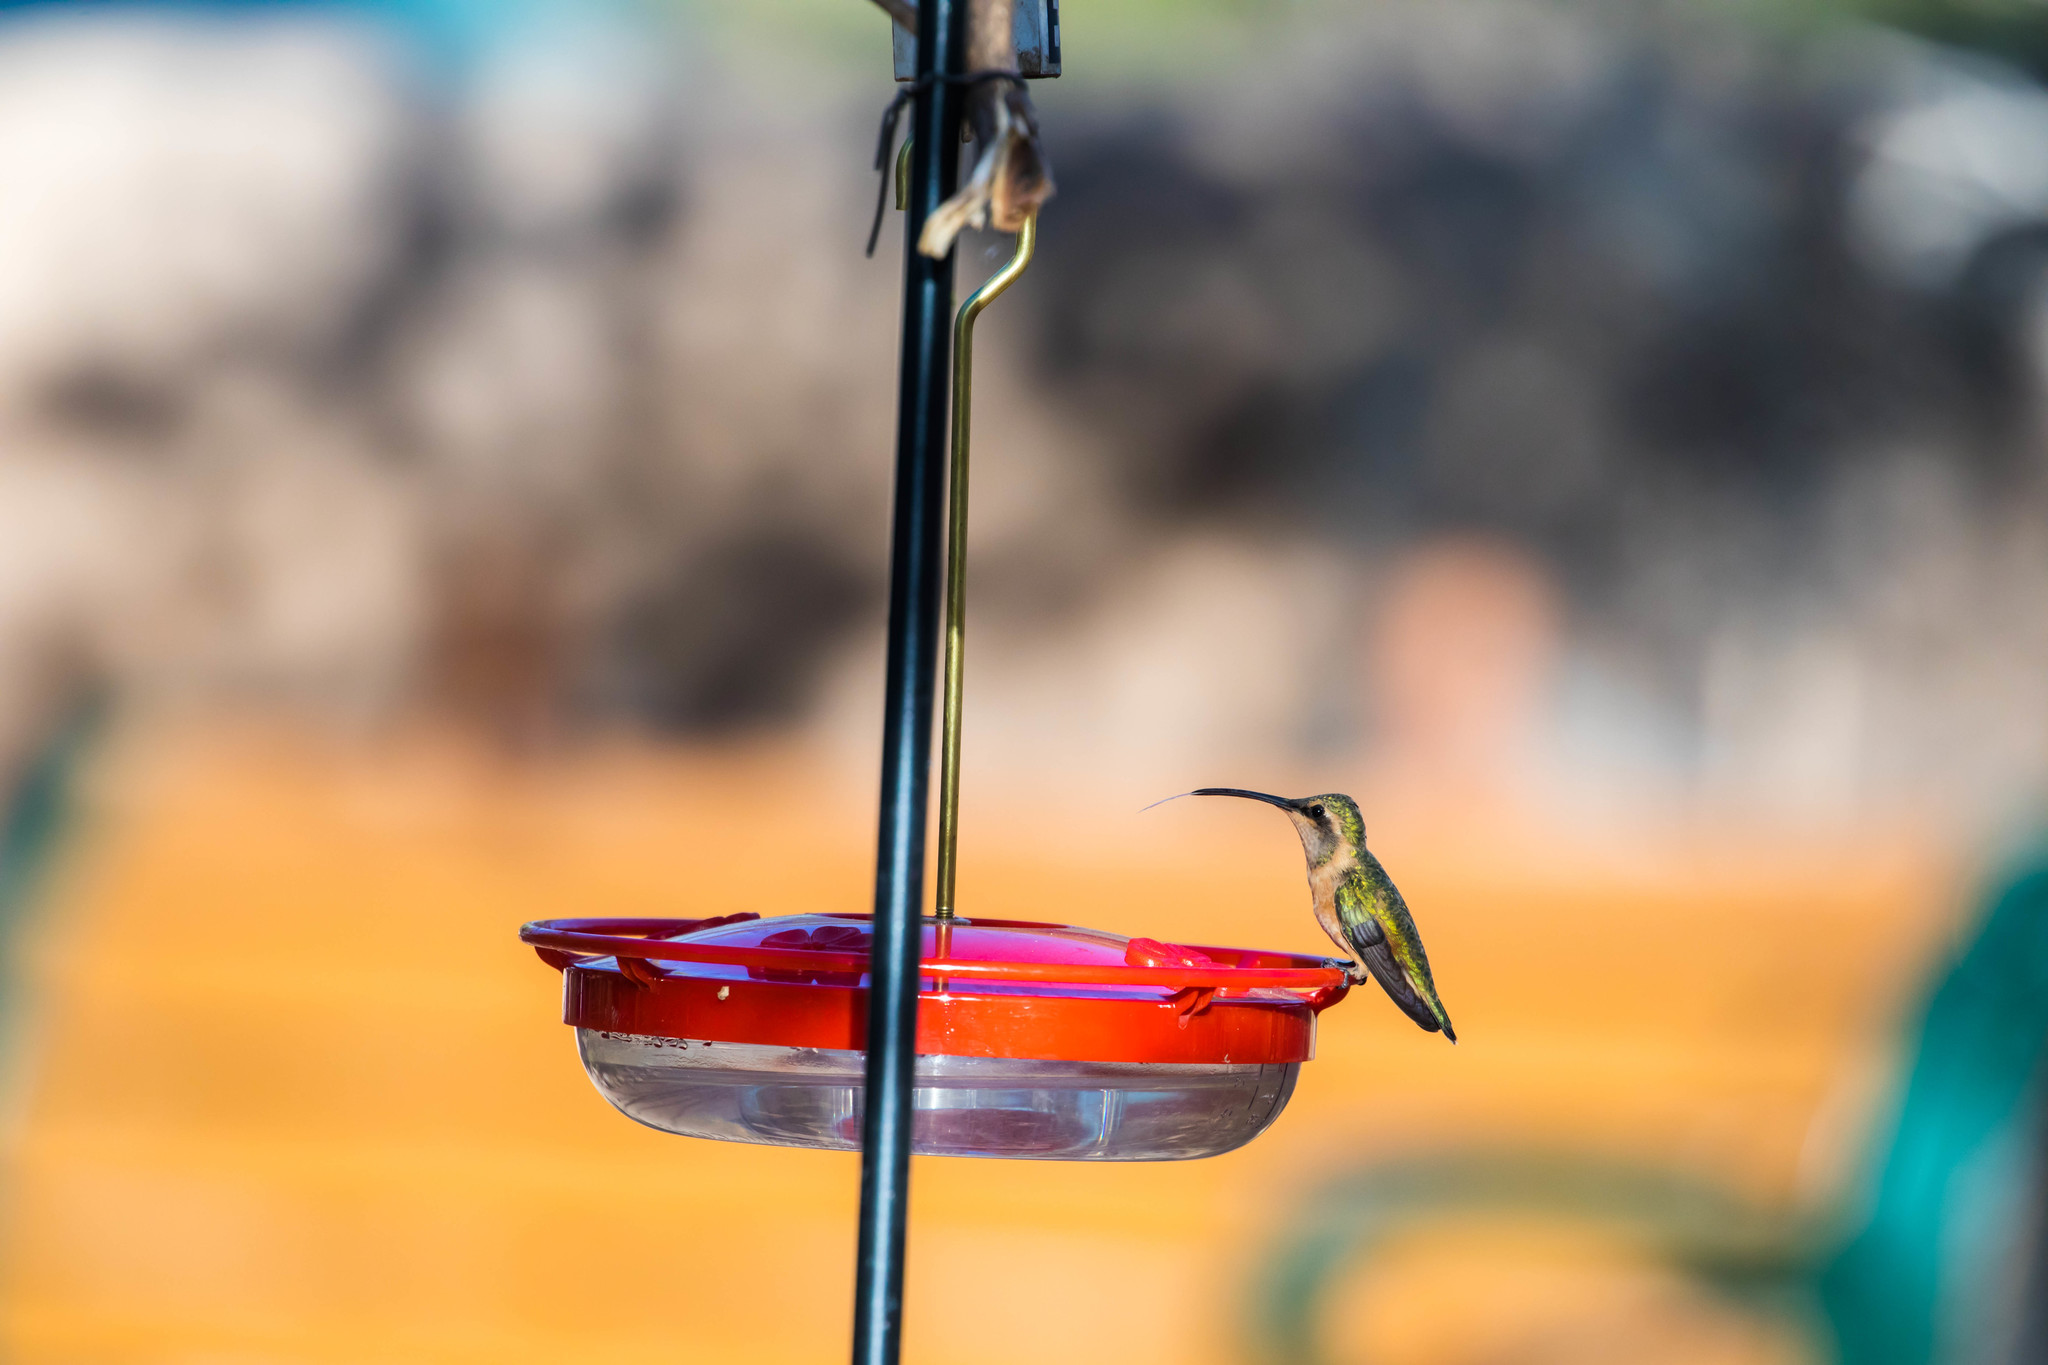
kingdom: Animalia
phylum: Chordata
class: Aves
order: Apodiformes
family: Trochilidae
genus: Calothorax
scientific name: Calothorax lucifer
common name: Lucifer sheartail
